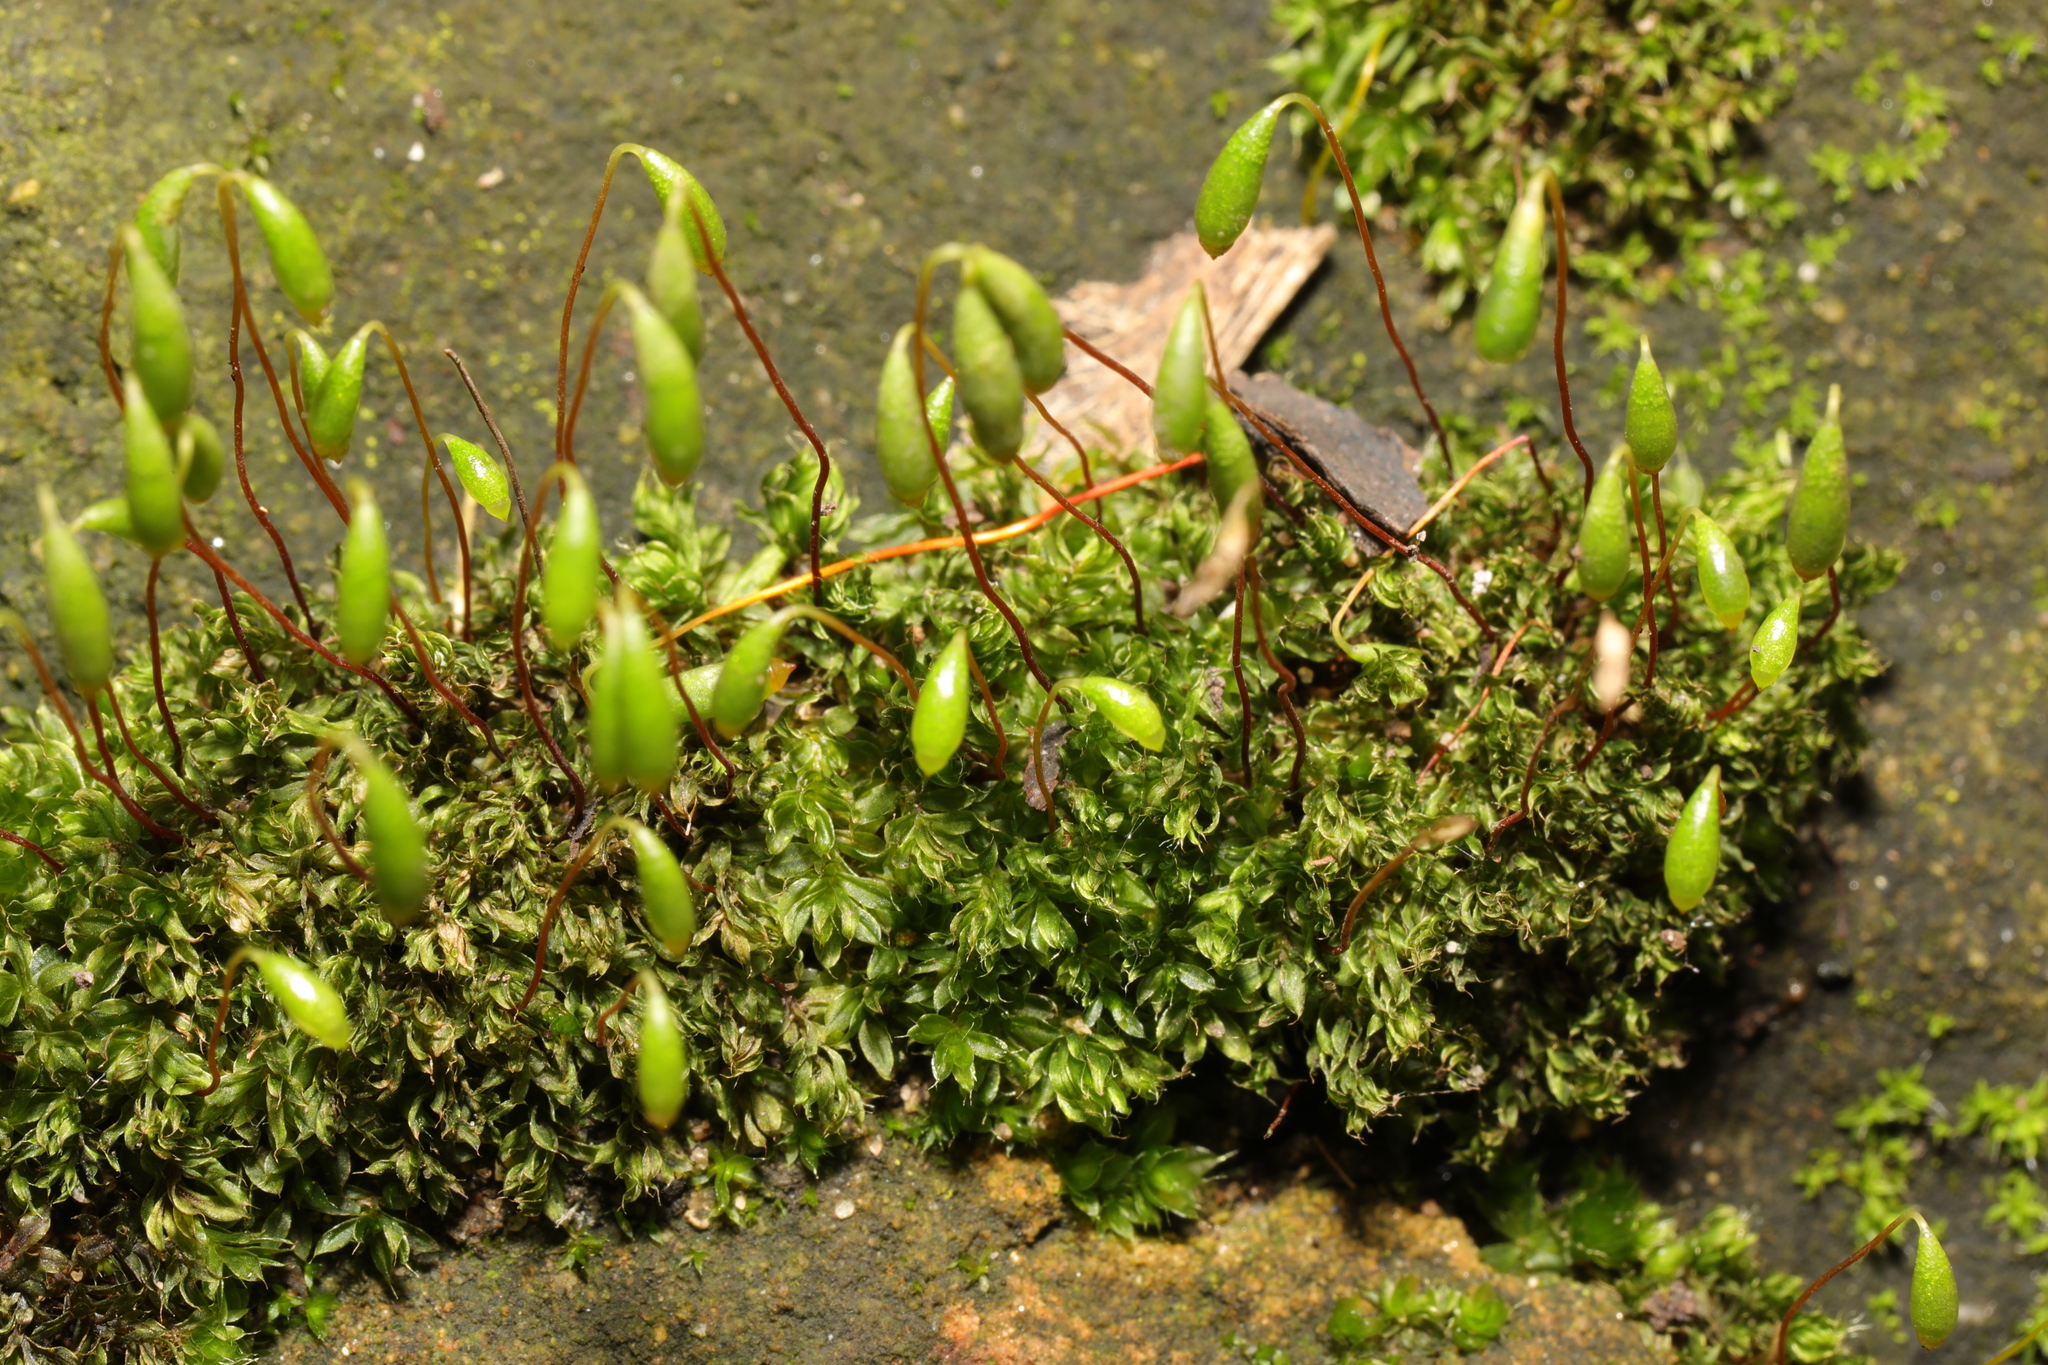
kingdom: Plantae
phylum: Bryophyta
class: Bryopsida
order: Bryales
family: Bryaceae
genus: Rosulabryum
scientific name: Rosulabryum capillare
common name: Capillary thread-moss
